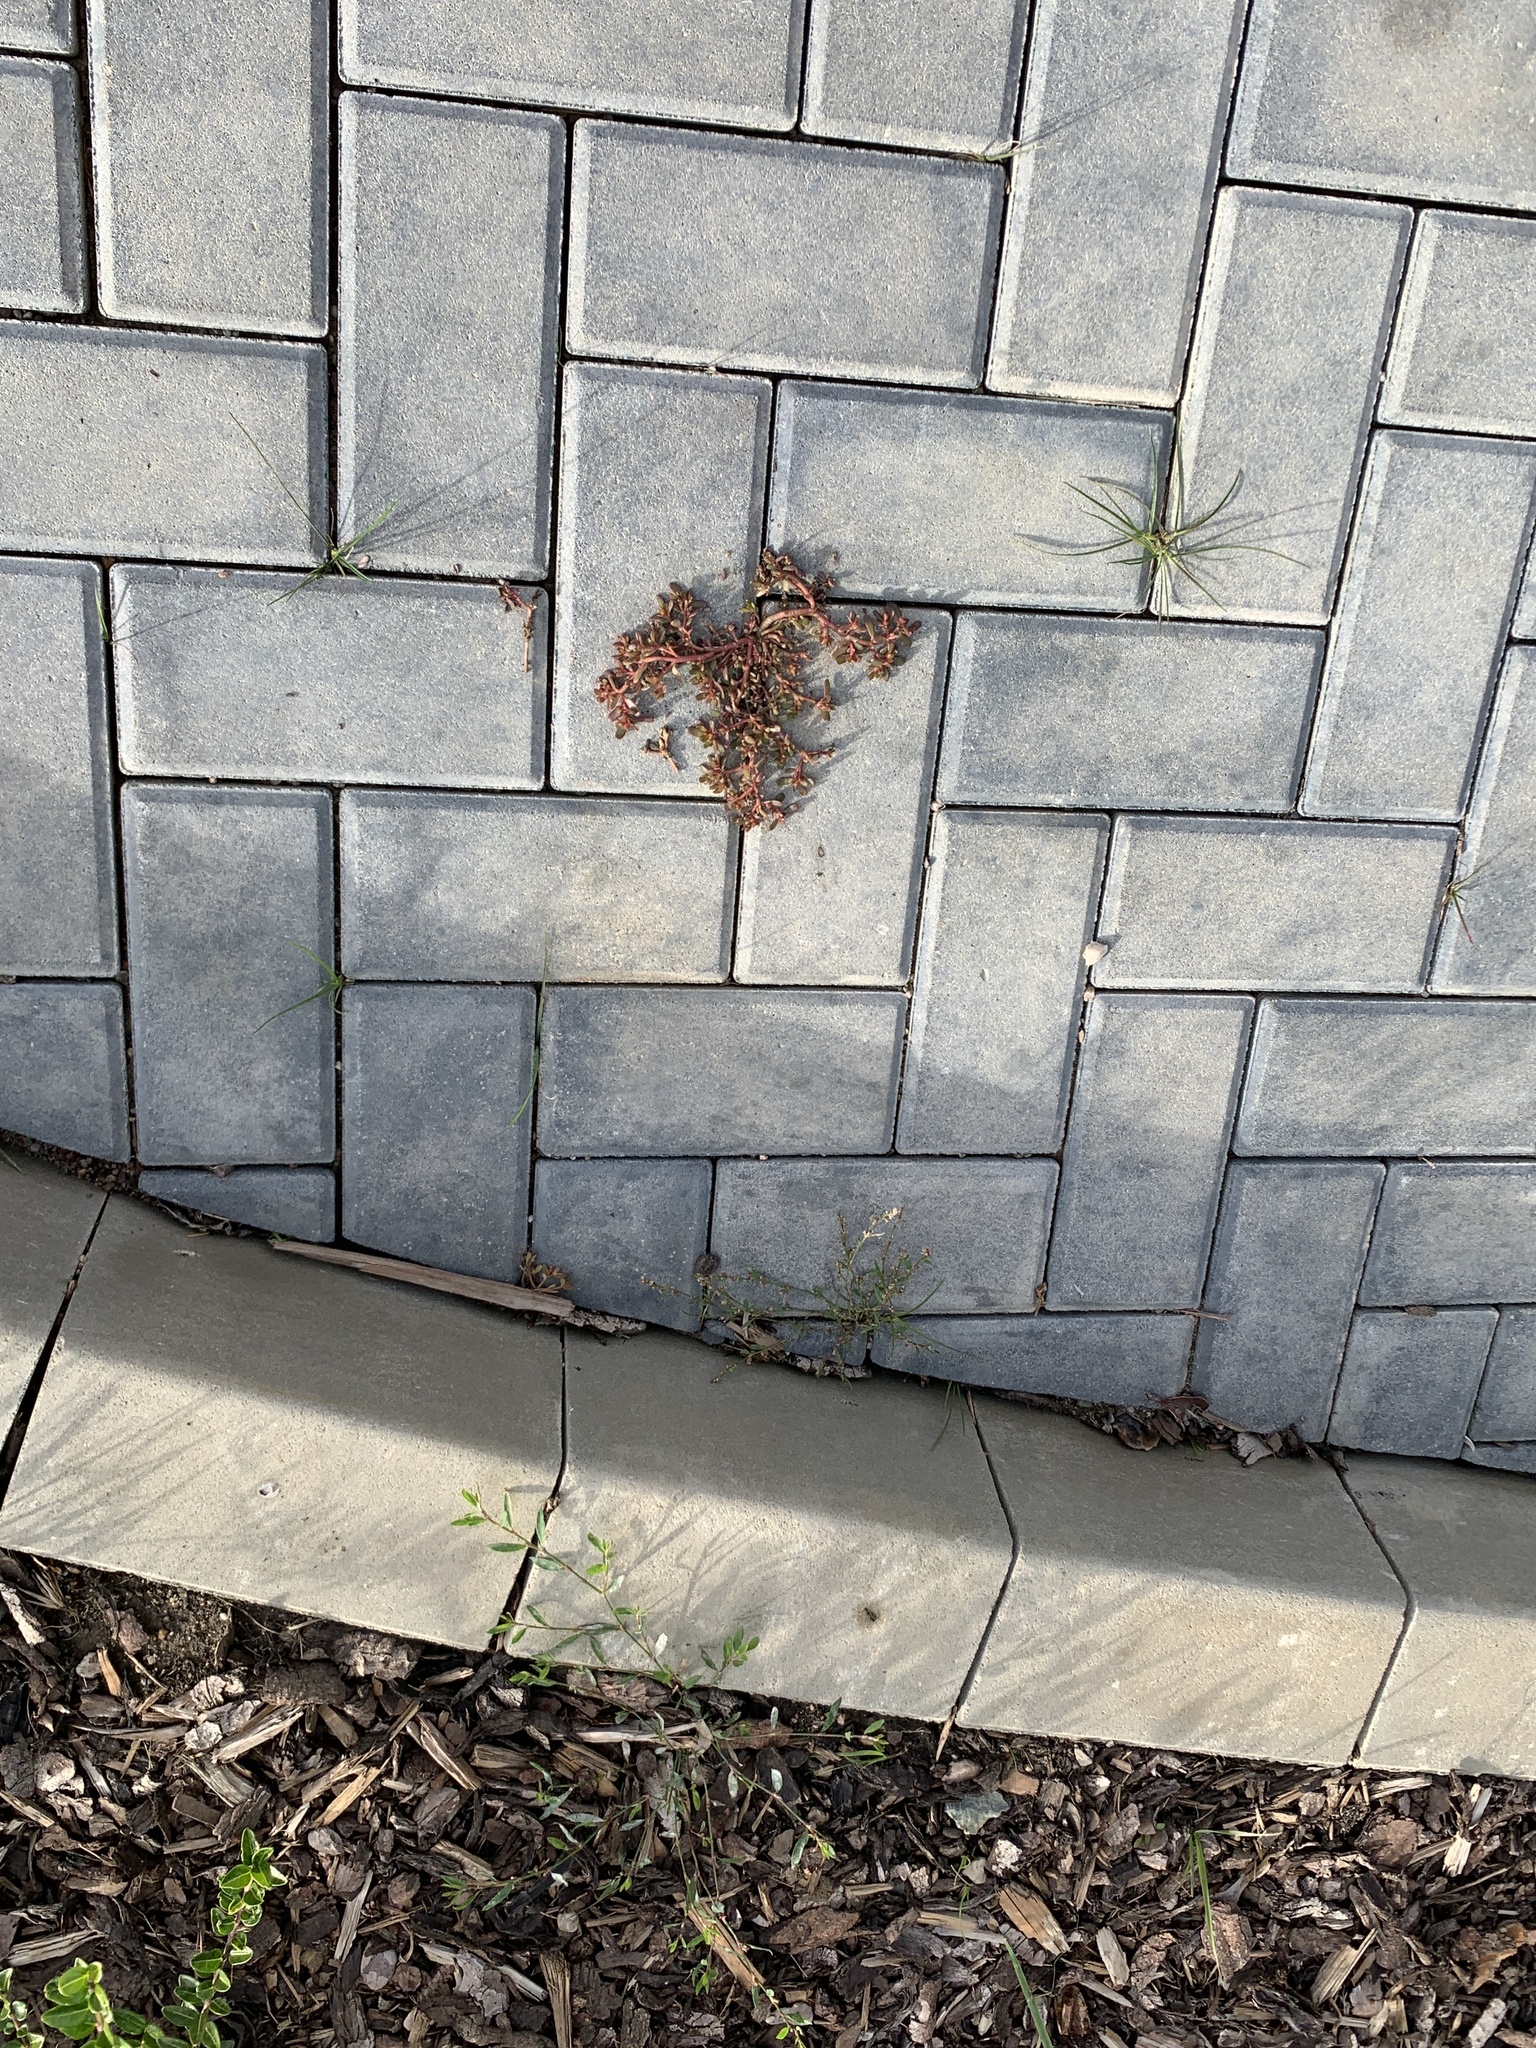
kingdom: Plantae
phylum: Tracheophyta
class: Magnoliopsida
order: Caryophyllales
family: Portulacaceae
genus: Portulaca
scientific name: Portulaca oleracea
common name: Common purslane
